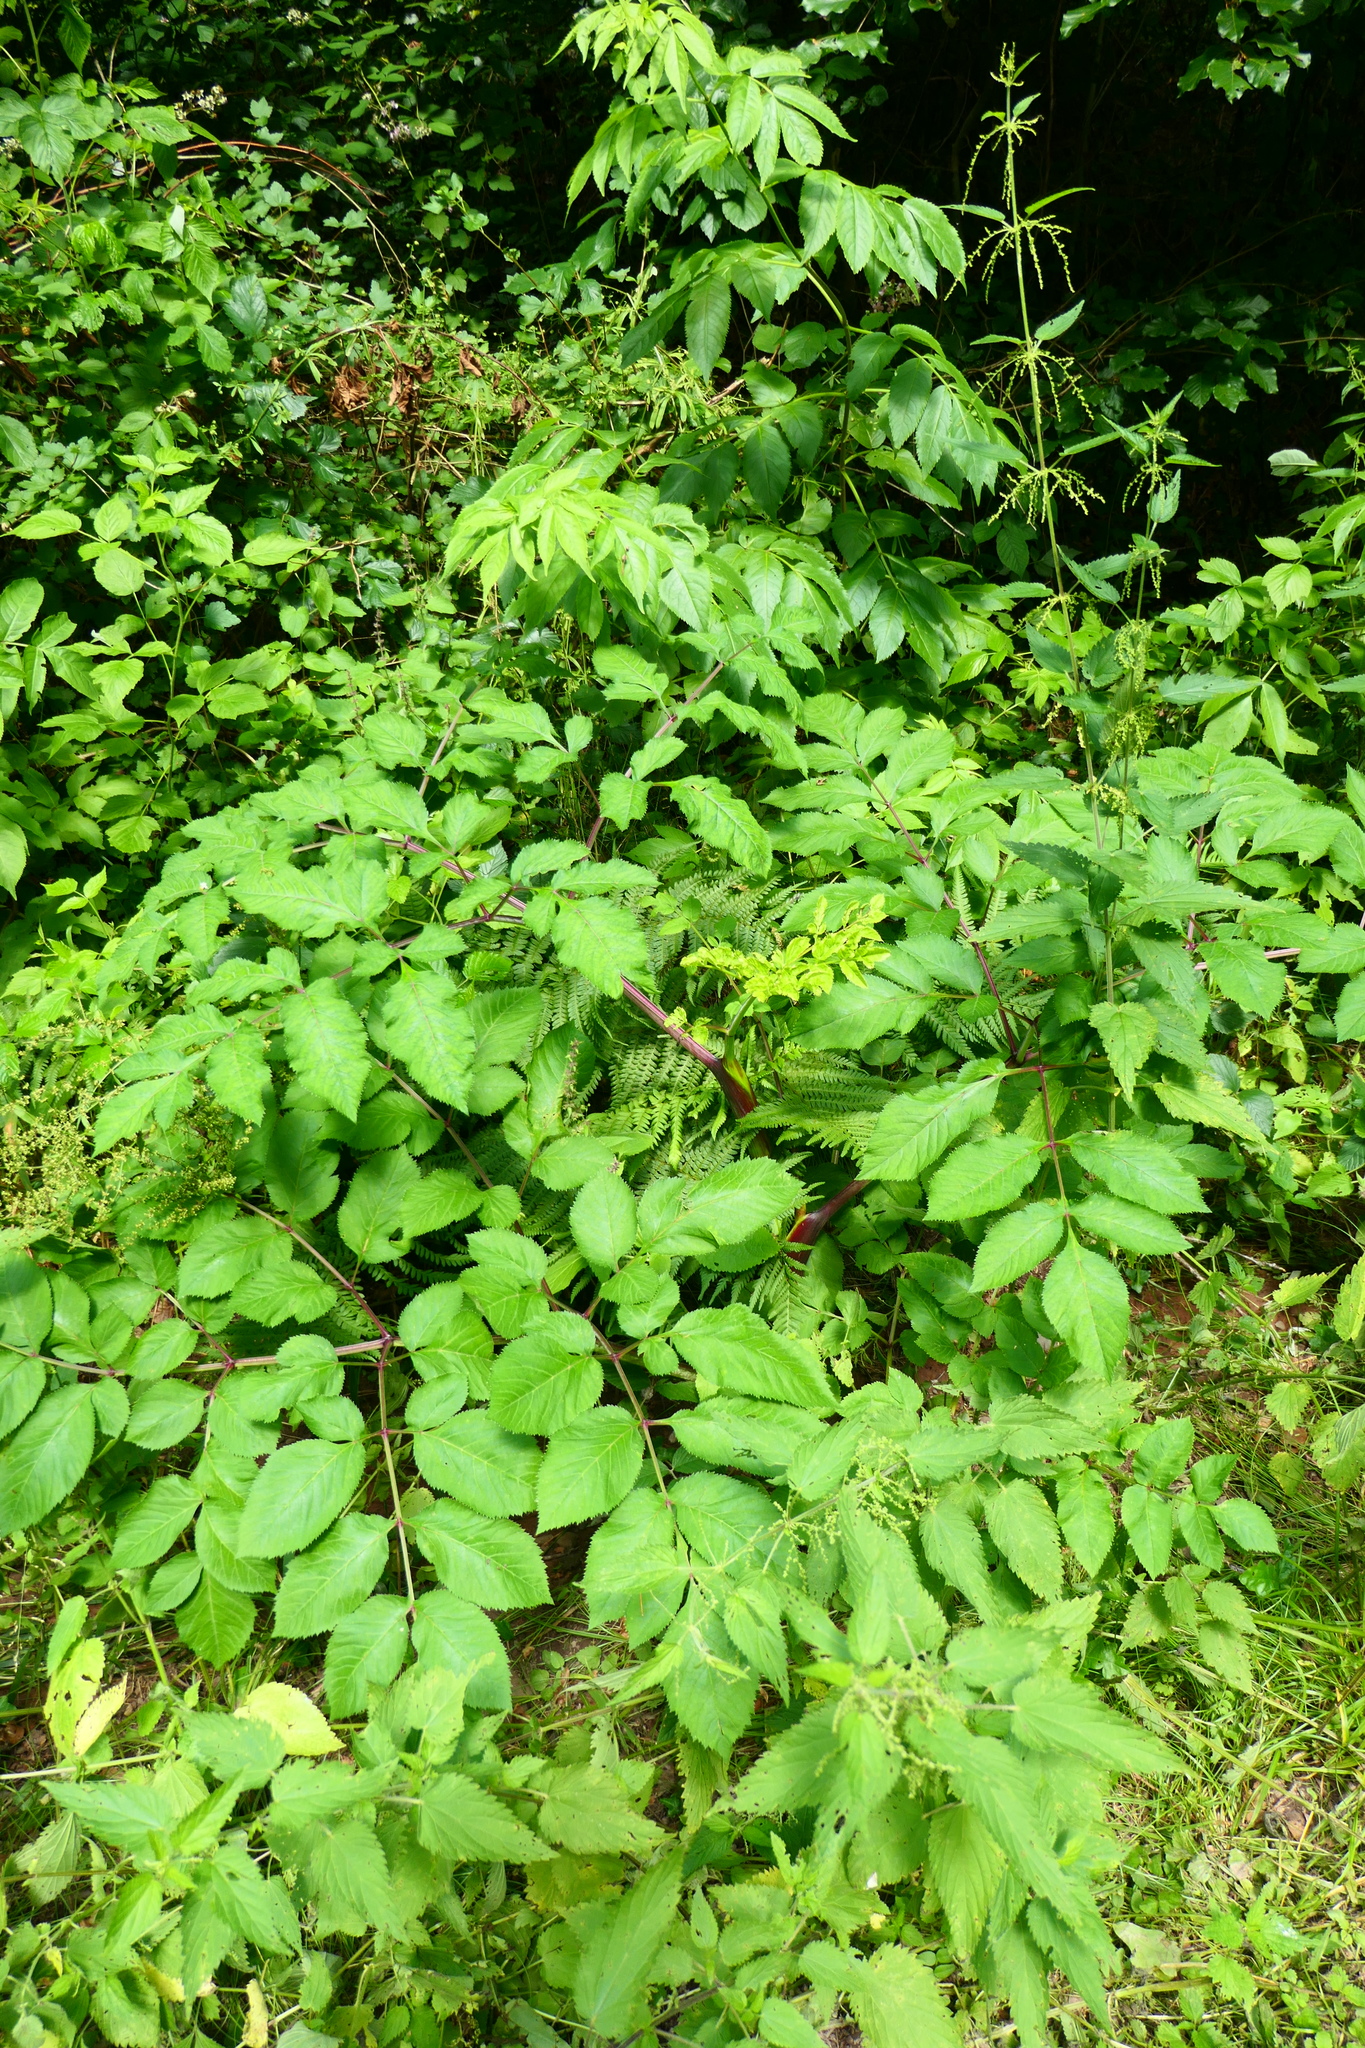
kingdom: Plantae
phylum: Tracheophyta
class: Magnoliopsida
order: Apiales
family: Apiaceae
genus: Angelica
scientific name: Angelica sylvestris
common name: Wild angelica
